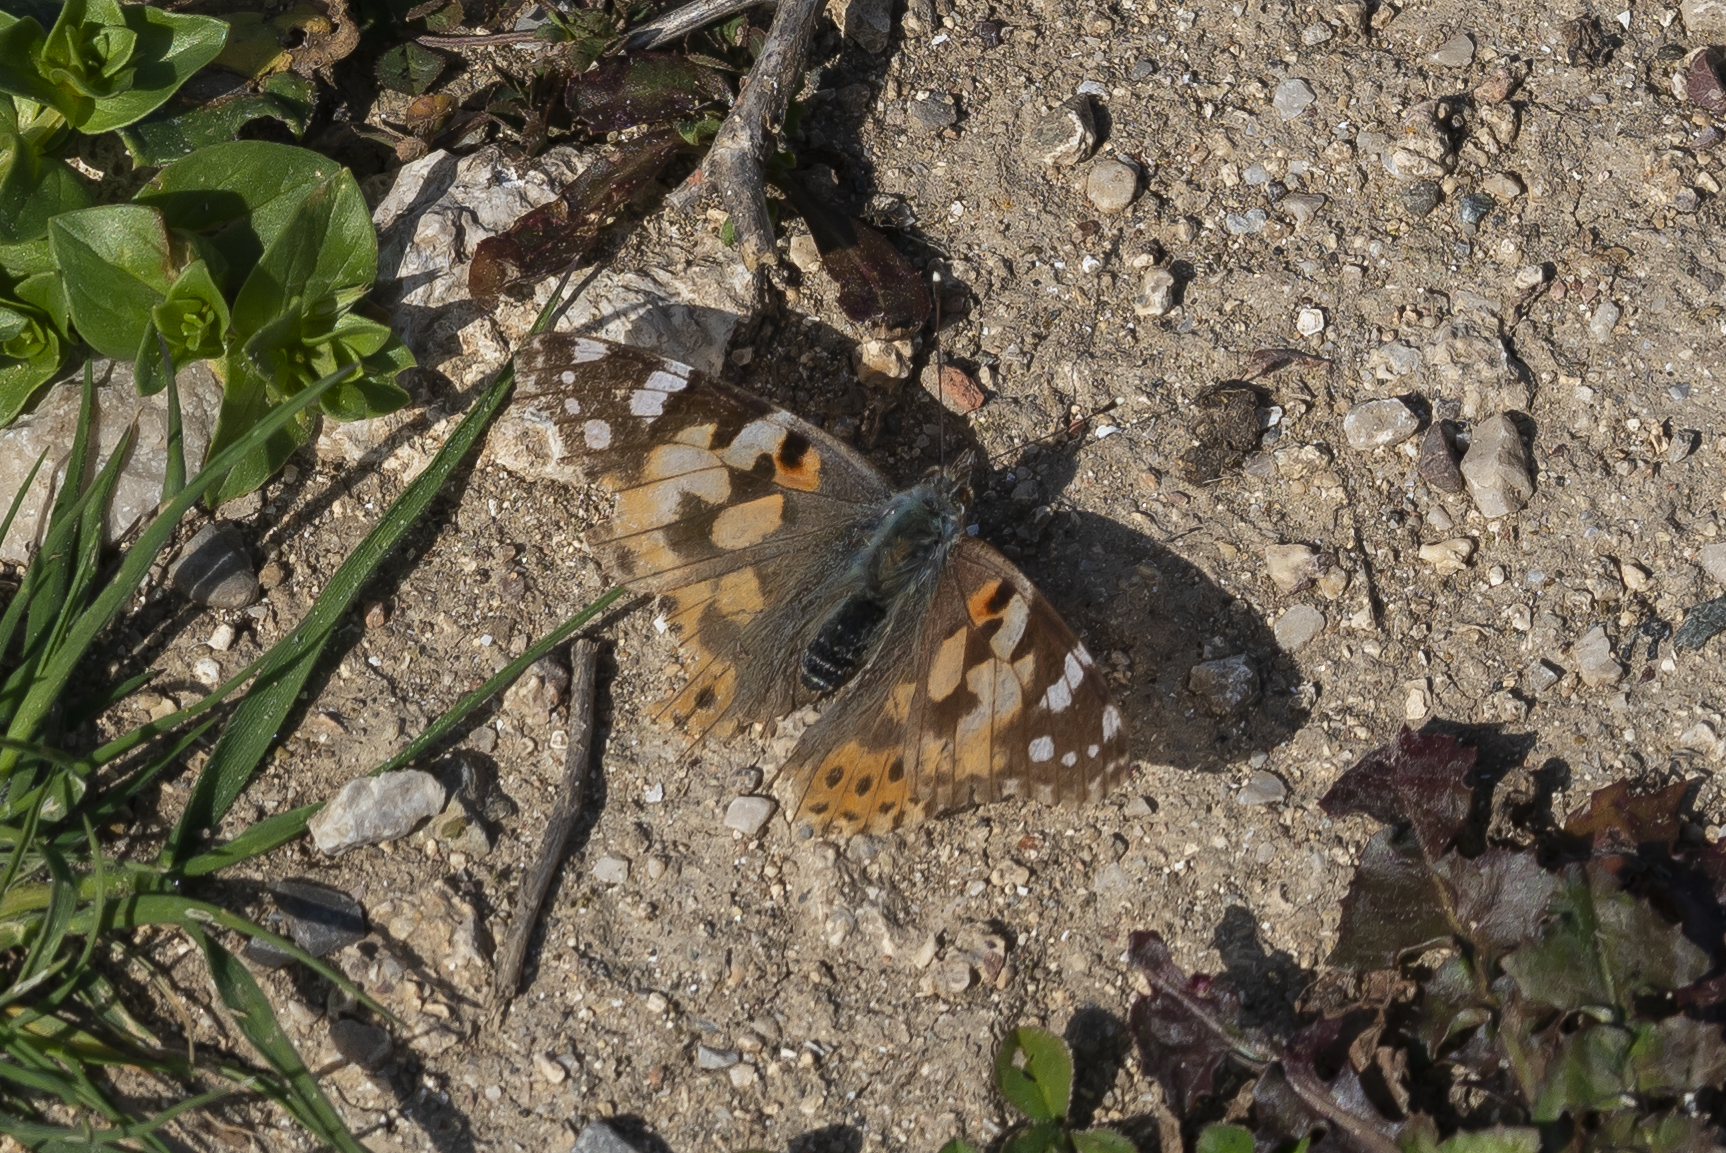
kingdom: Animalia
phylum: Arthropoda
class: Insecta
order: Lepidoptera
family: Nymphalidae
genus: Vanessa
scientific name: Vanessa cardui
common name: Painted lady
